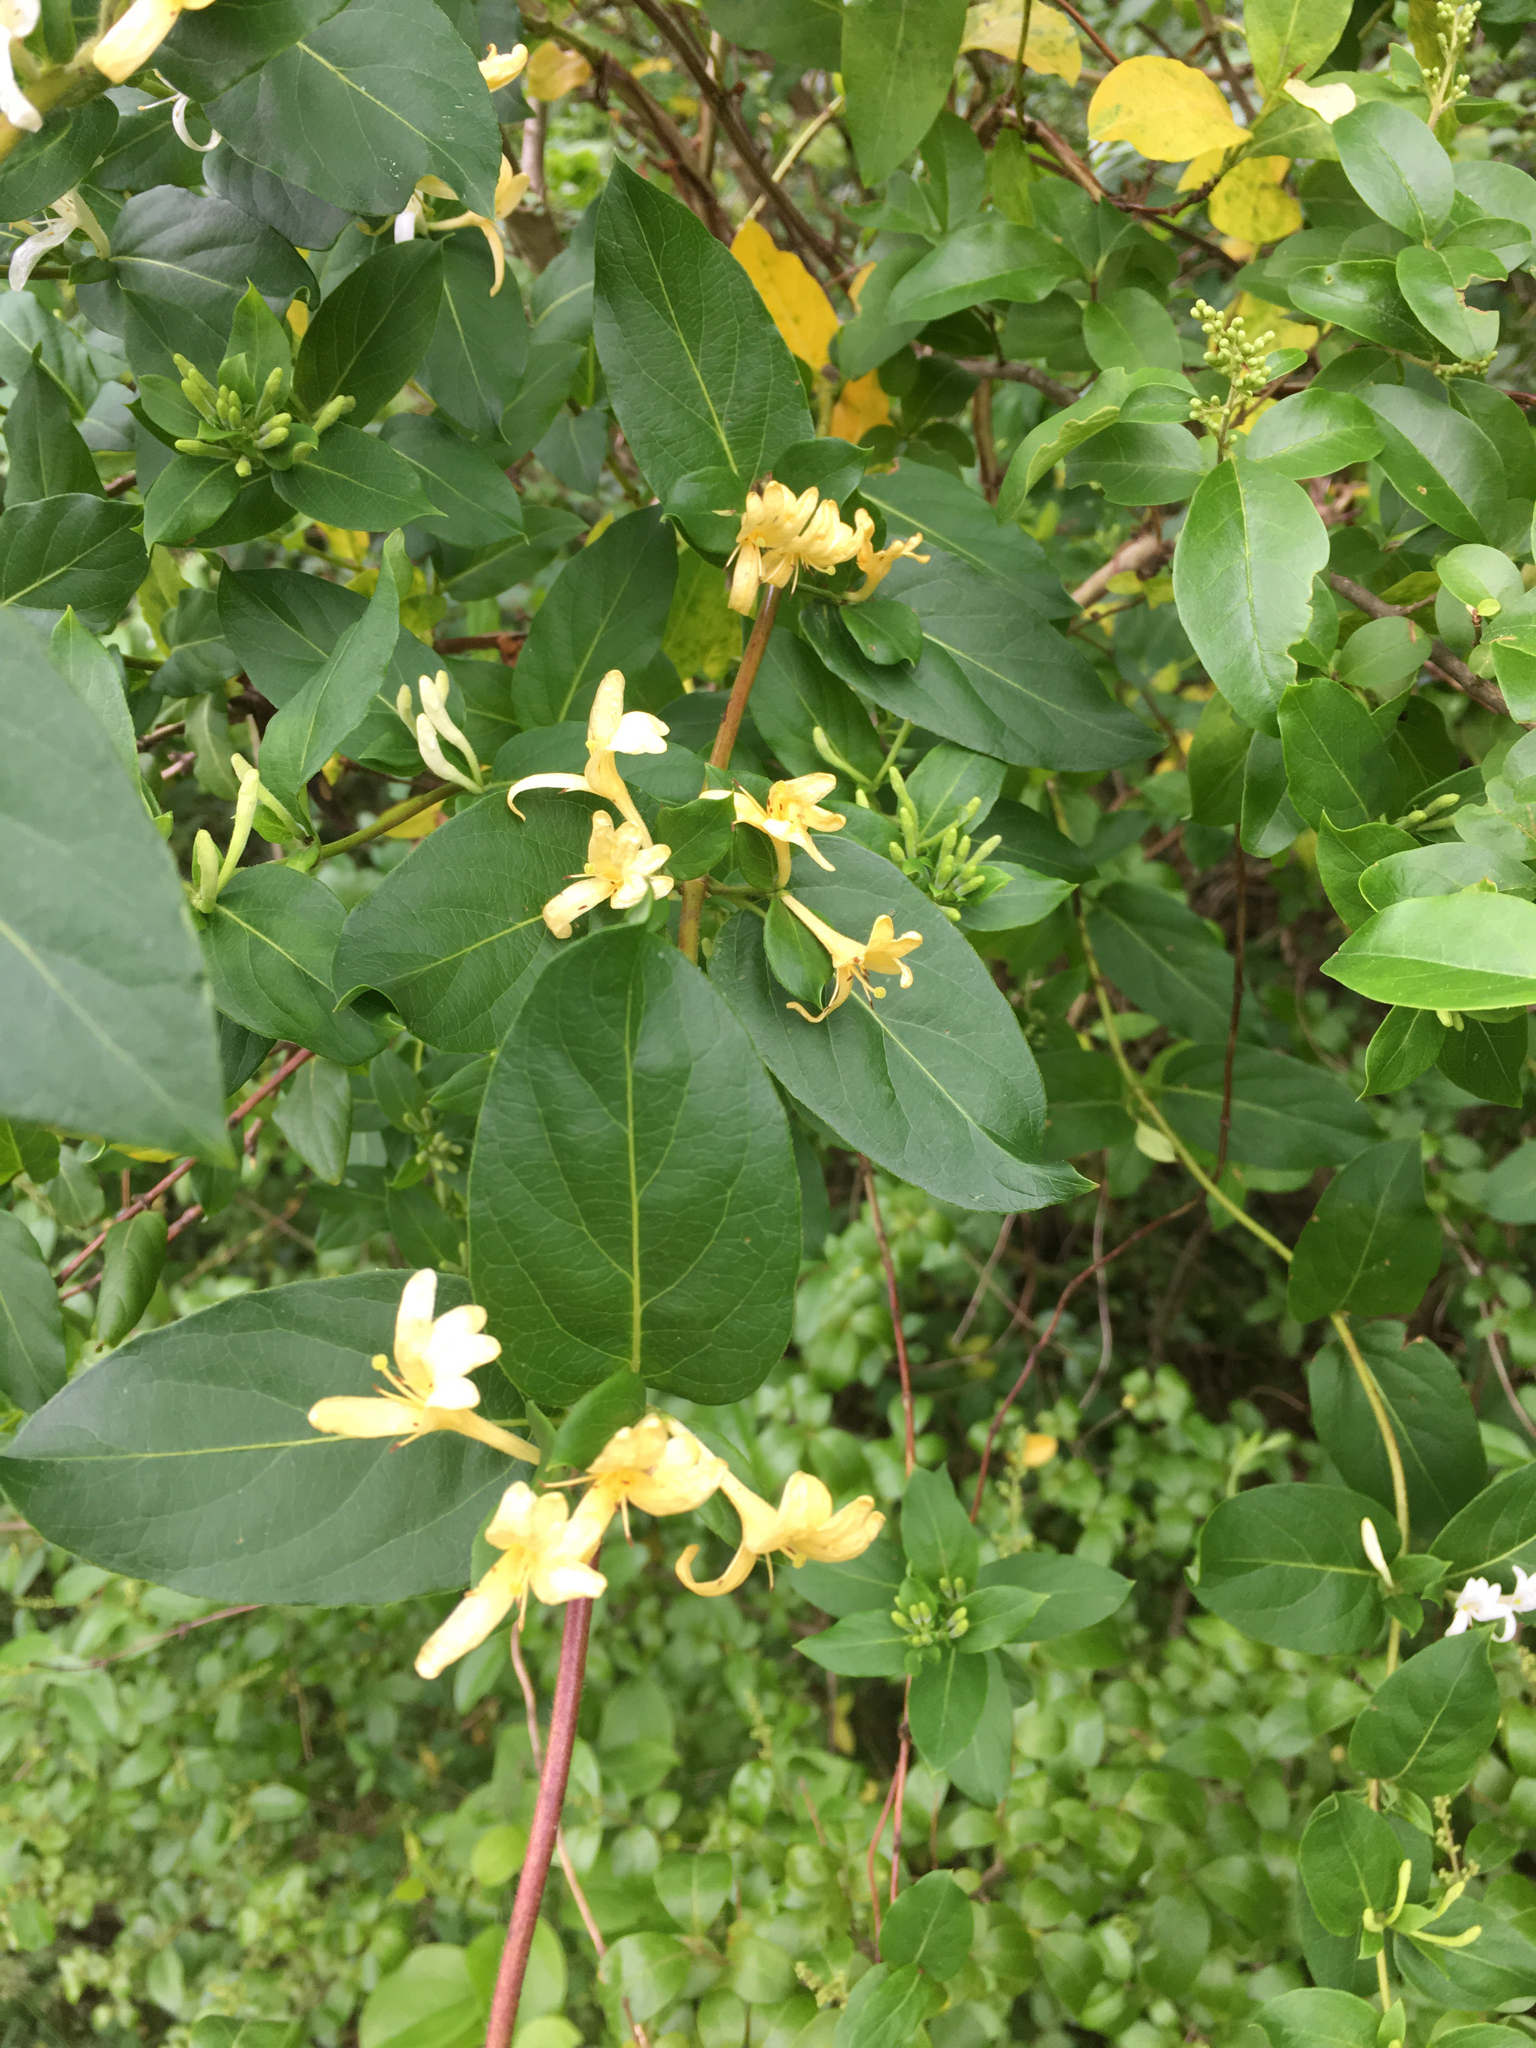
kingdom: Plantae
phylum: Tracheophyta
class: Magnoliopsida
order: Dipsacales
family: Caprifoliaceae
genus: Lonicera
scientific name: Lonicera japonica
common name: Japanese honeysuckle
